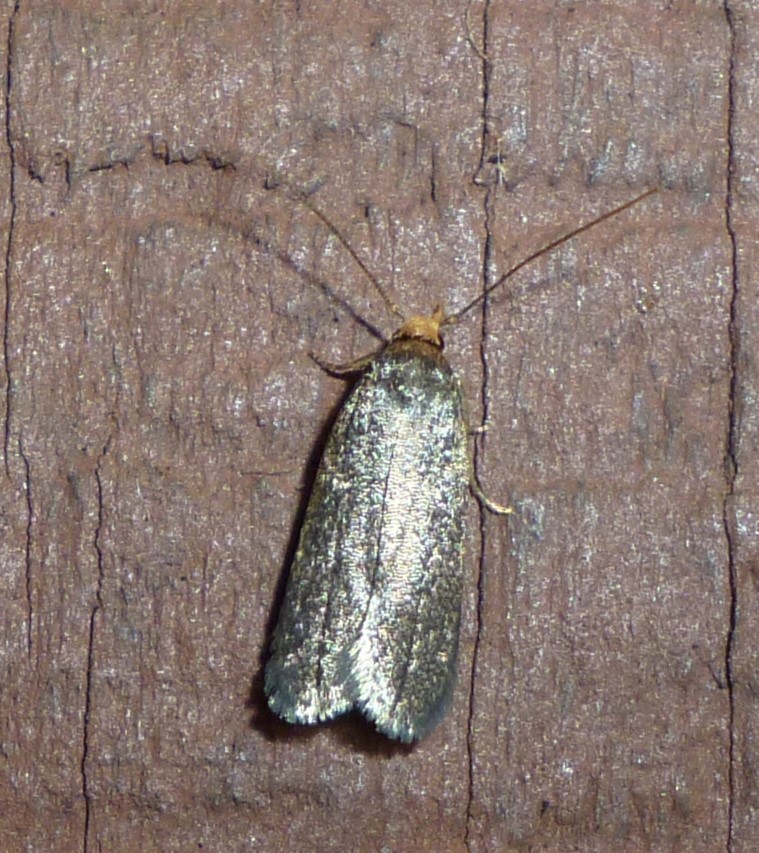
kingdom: Animalia
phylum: Arthropoda
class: Insecta
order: Lepidoptera
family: Pyralidae
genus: Achroia
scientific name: Achroia grisella
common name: Lesser wax moth
